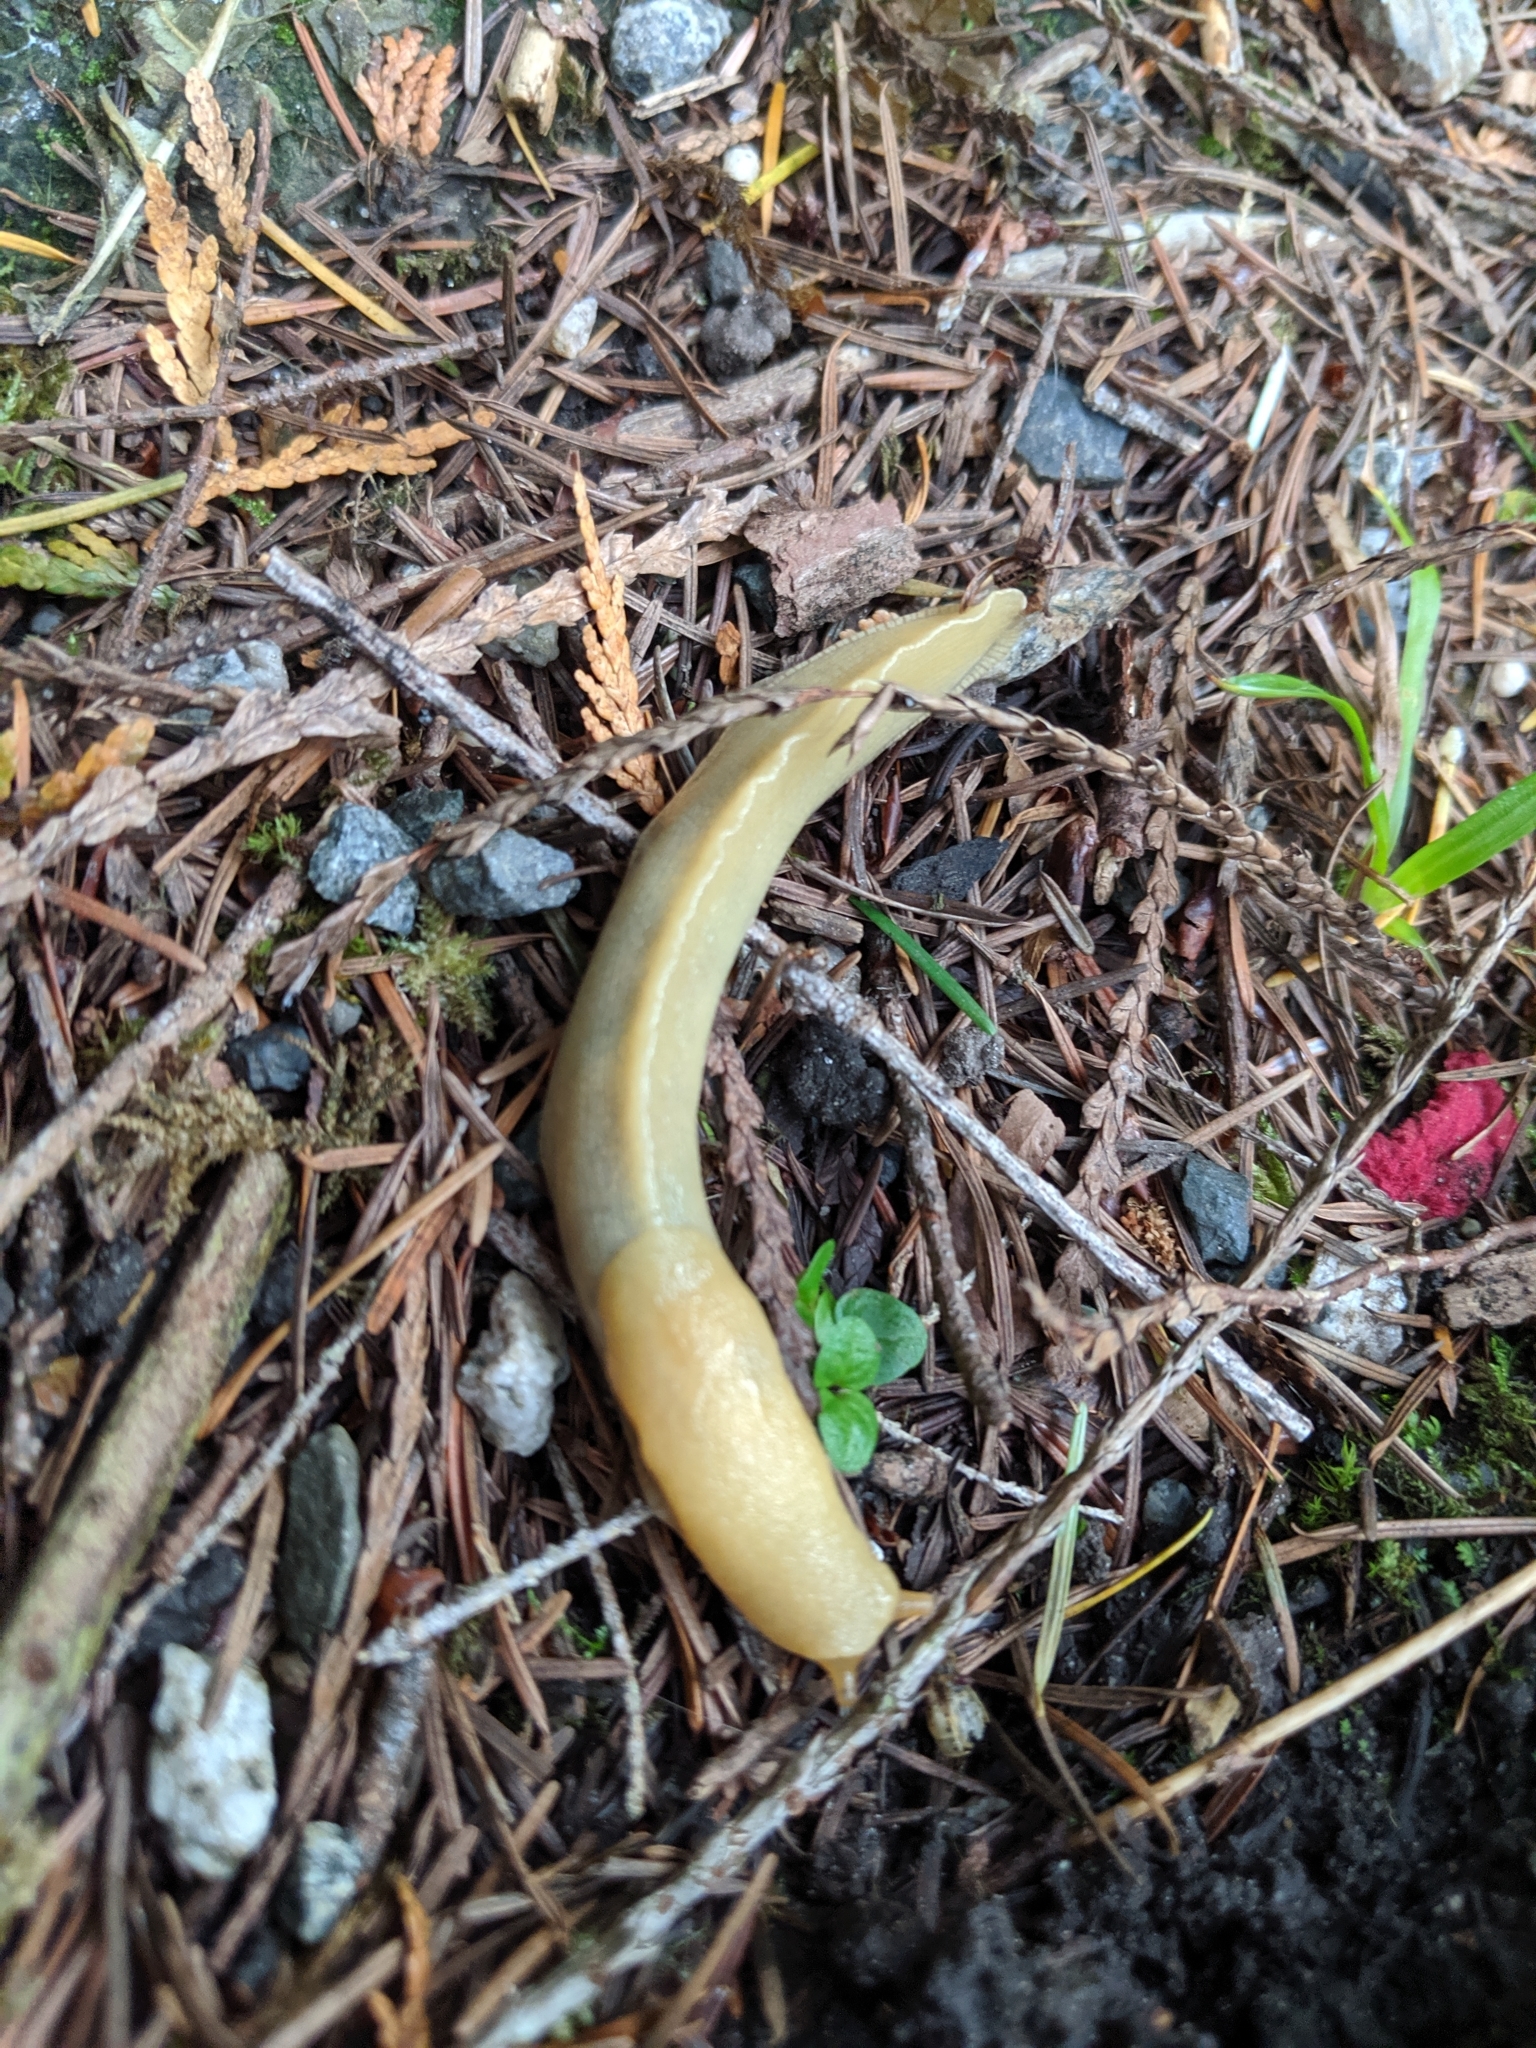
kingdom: Animalia
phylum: Mollusca
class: Gastropoda
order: Stylommatophora
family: Ariolimacidae
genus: Ariolimax
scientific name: Ariolimax columbianus
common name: Pacific banana slug
